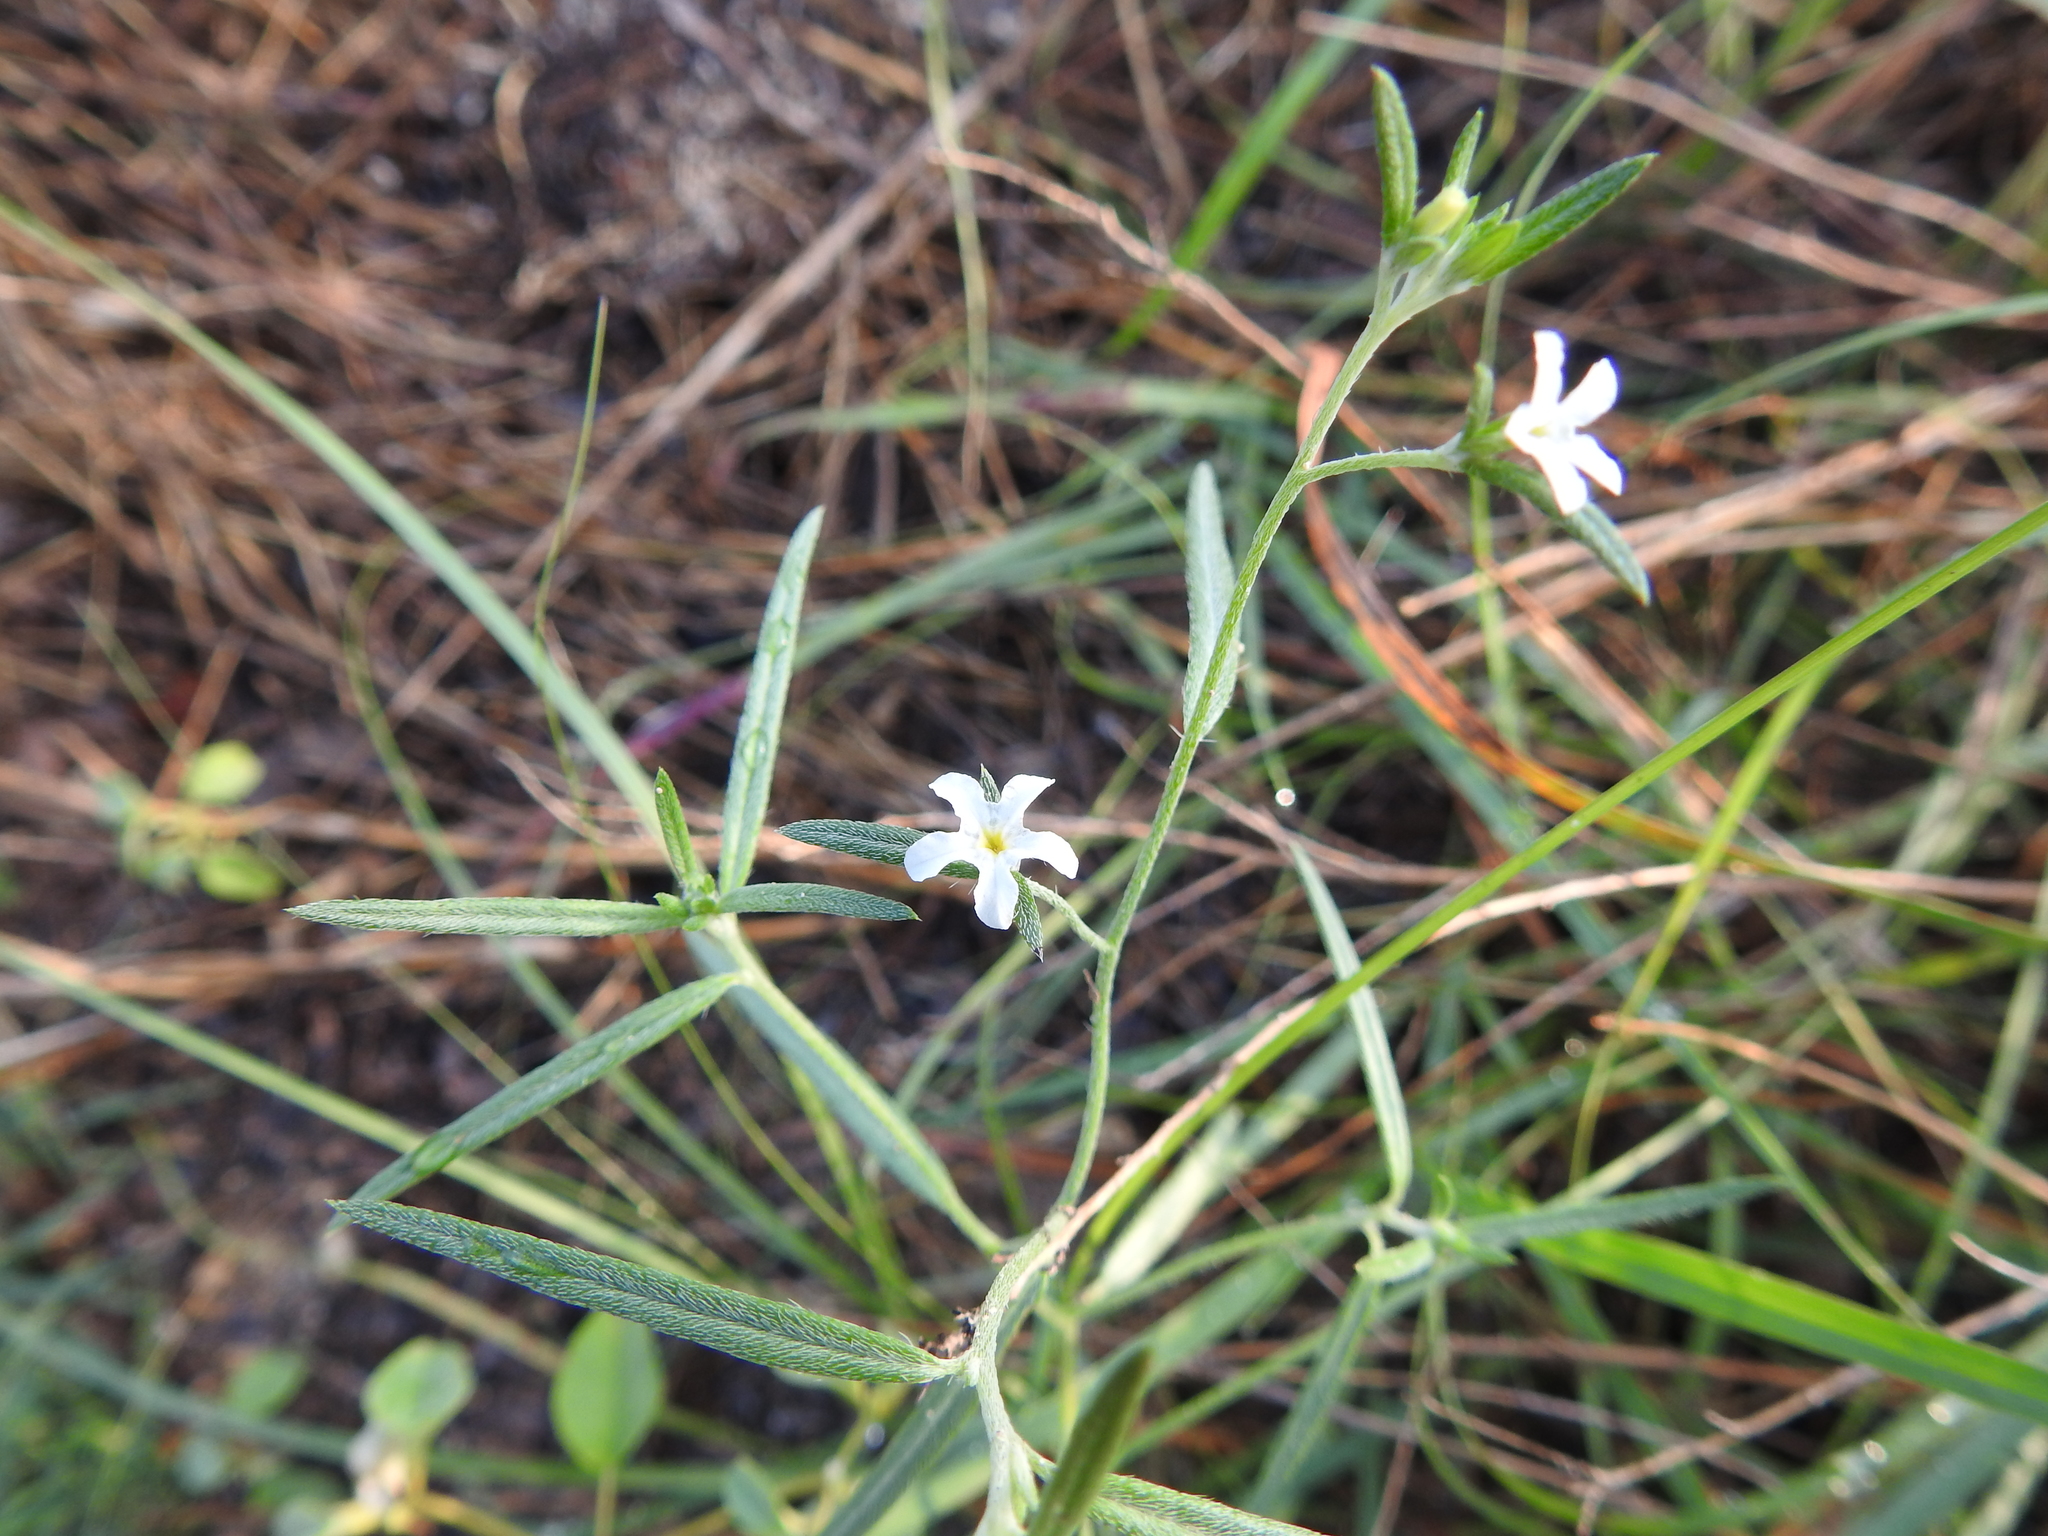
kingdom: Plantae
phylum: Tracheophyta
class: Magnoliopsida
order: Boraginales
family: Heliotropiaceae
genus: Euploca
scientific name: Euploca tenella
